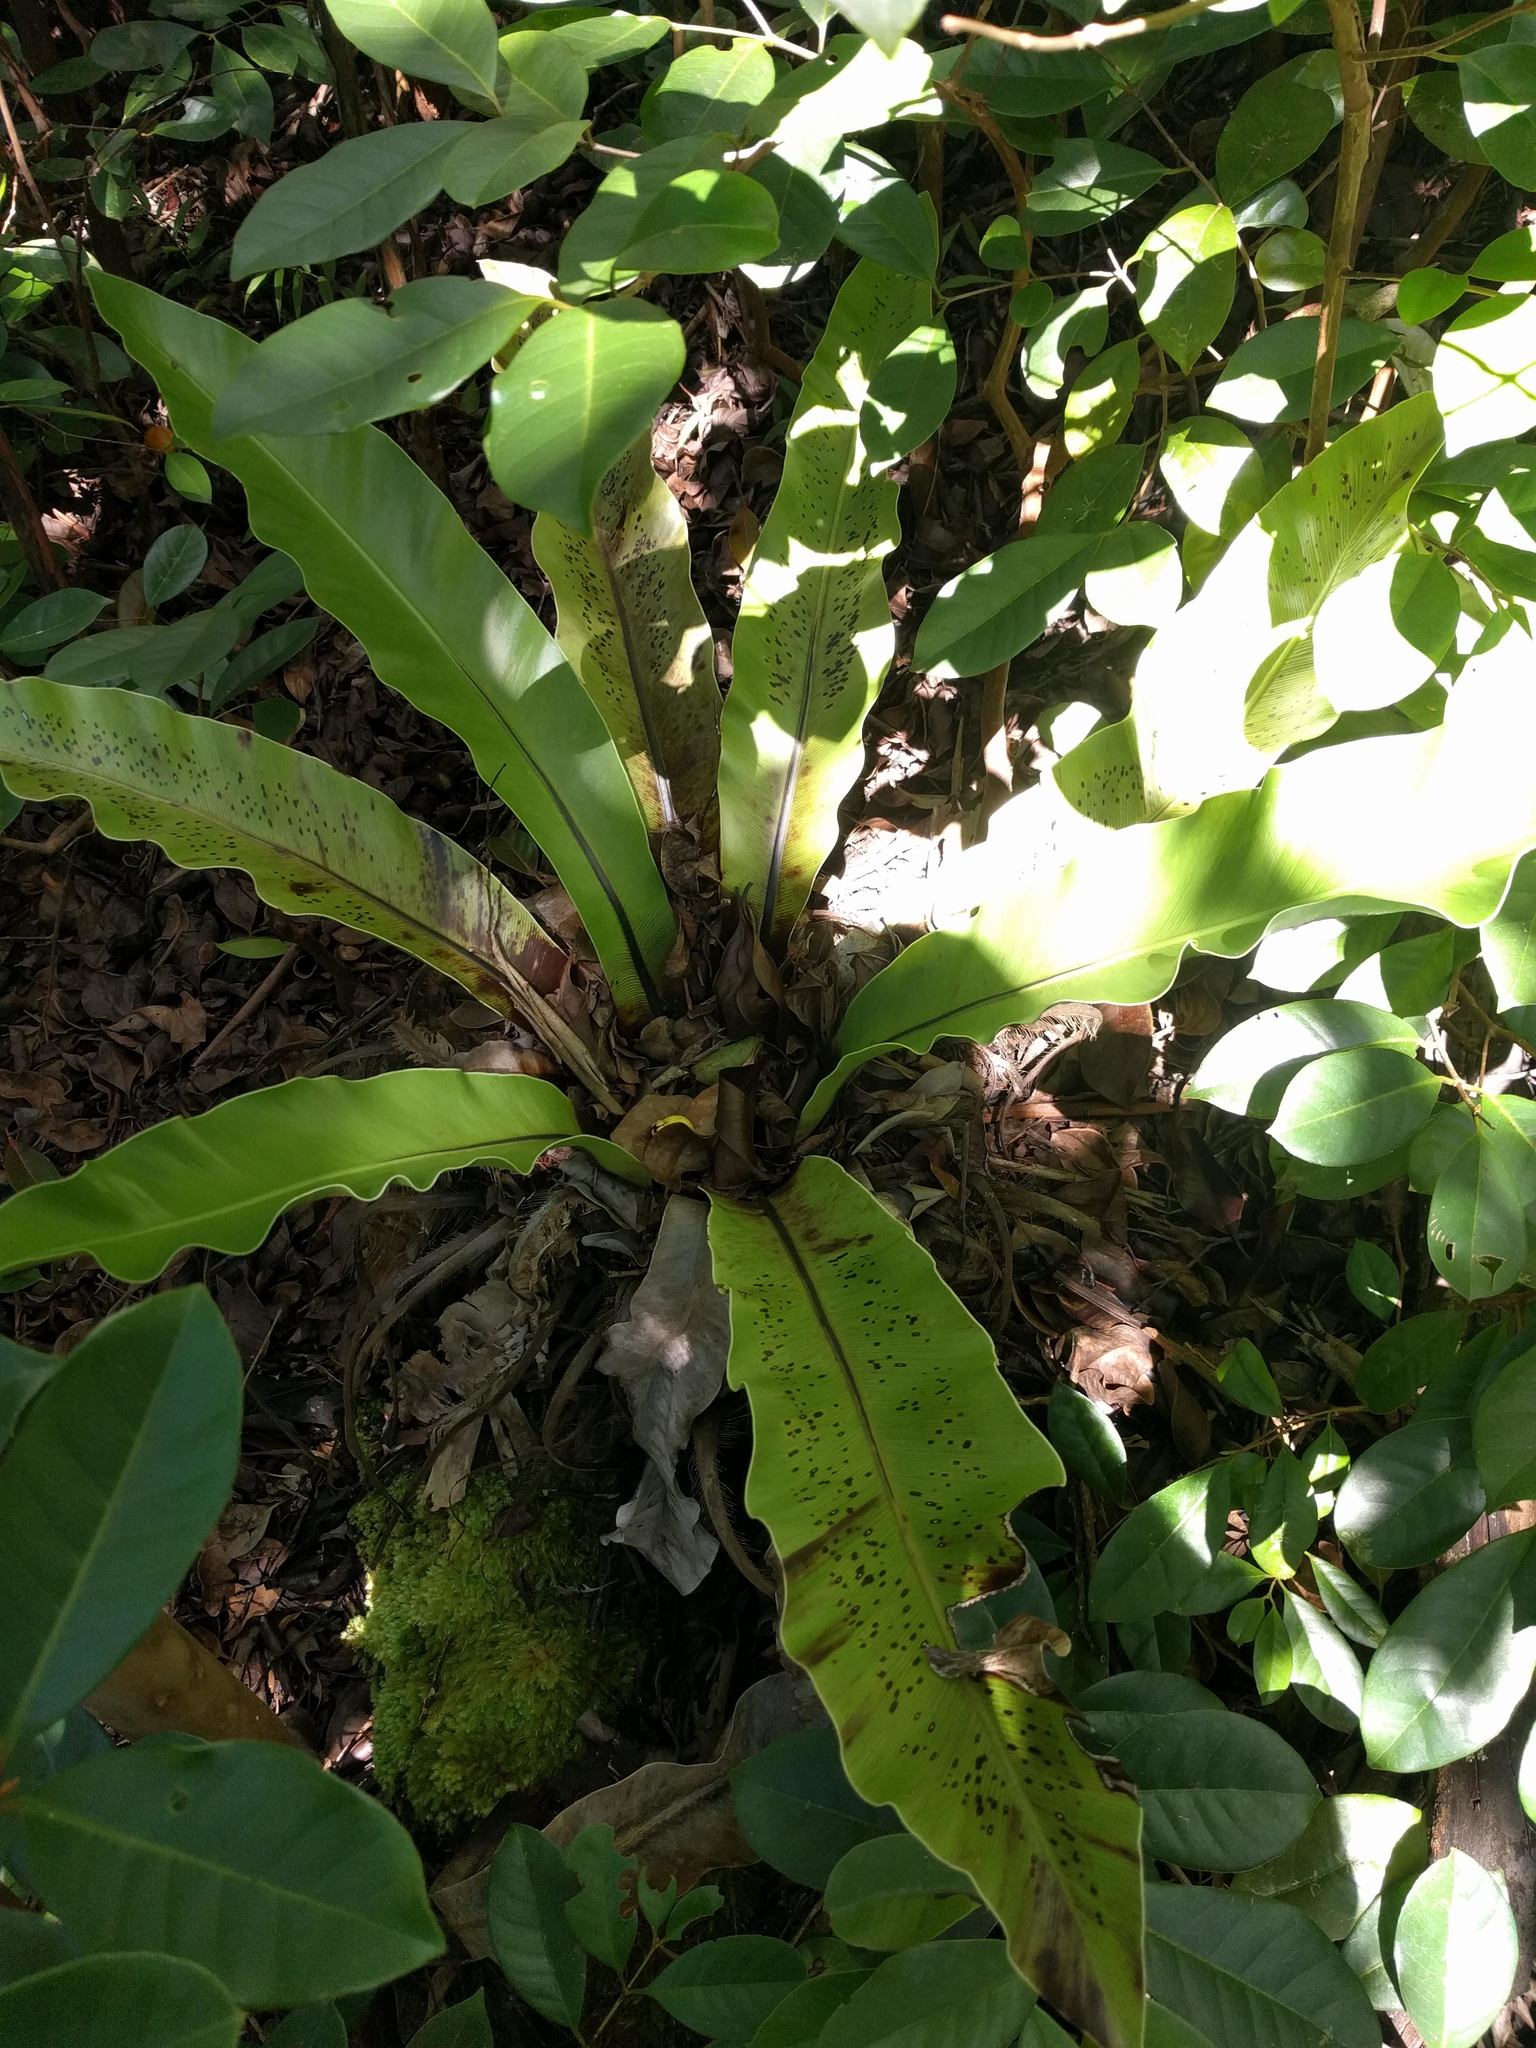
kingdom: Plantae
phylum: Tracheophyta
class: Polypodiopsida
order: Polypodiales
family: Aspleniaceae
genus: Asplenium
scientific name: Asplenium nidus
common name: Bird's-nest fern
